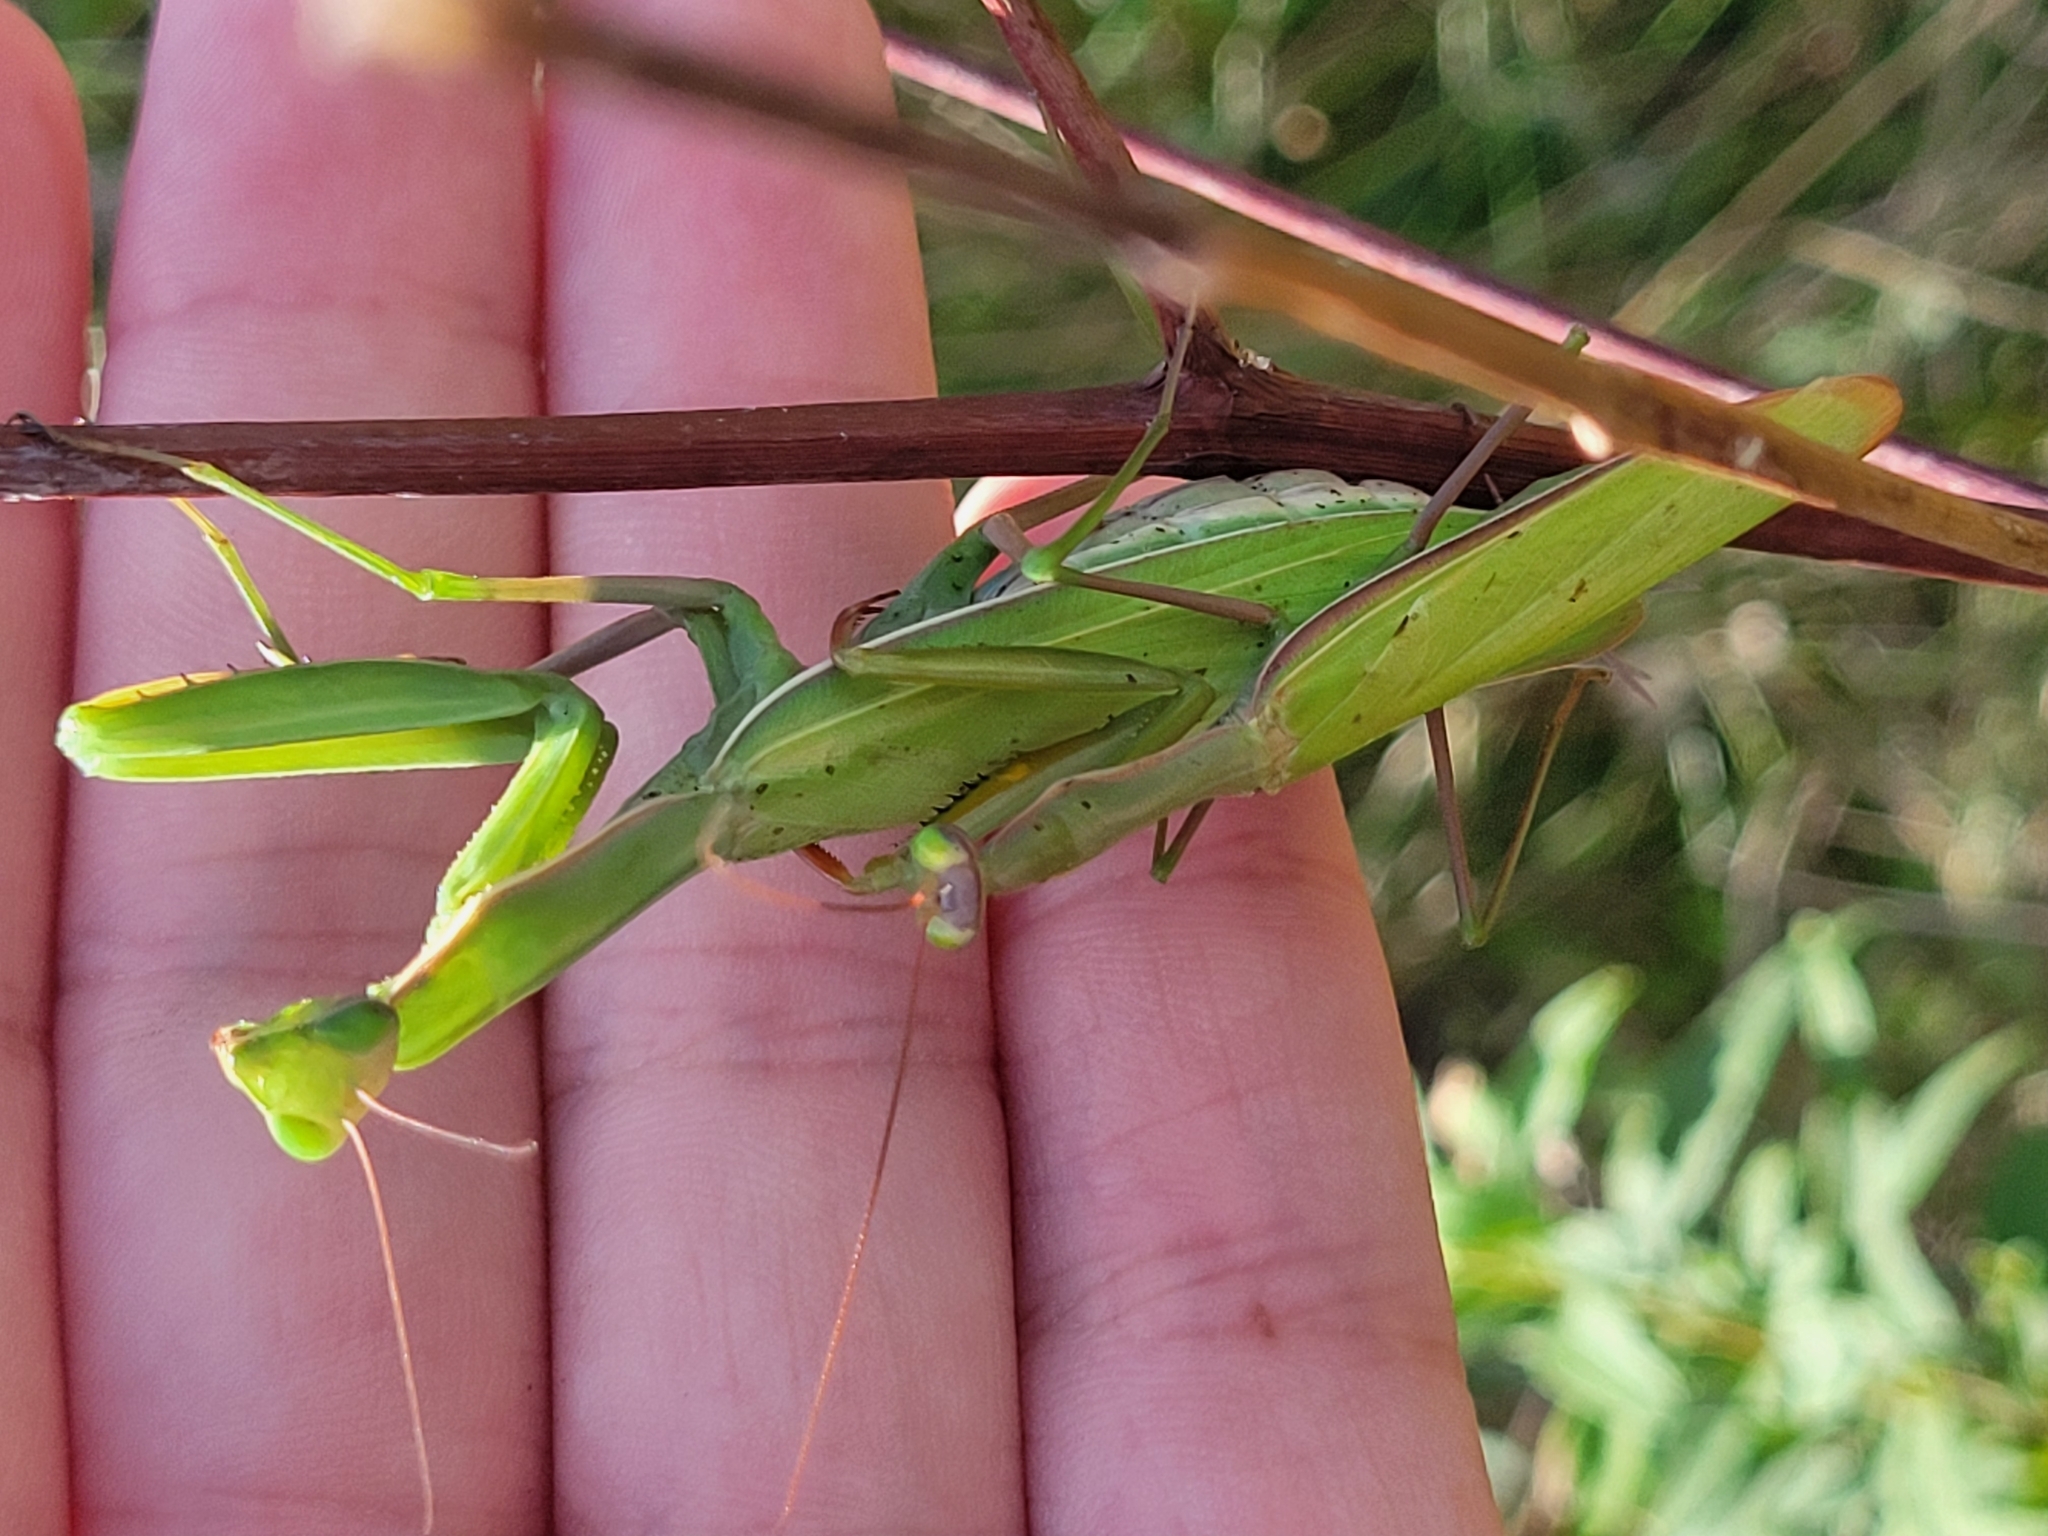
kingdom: Animalia
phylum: Arthropoda
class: Insecta
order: Mantodea
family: Mantidae
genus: Mantis
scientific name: Mantis religiosa
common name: Praying mantis
